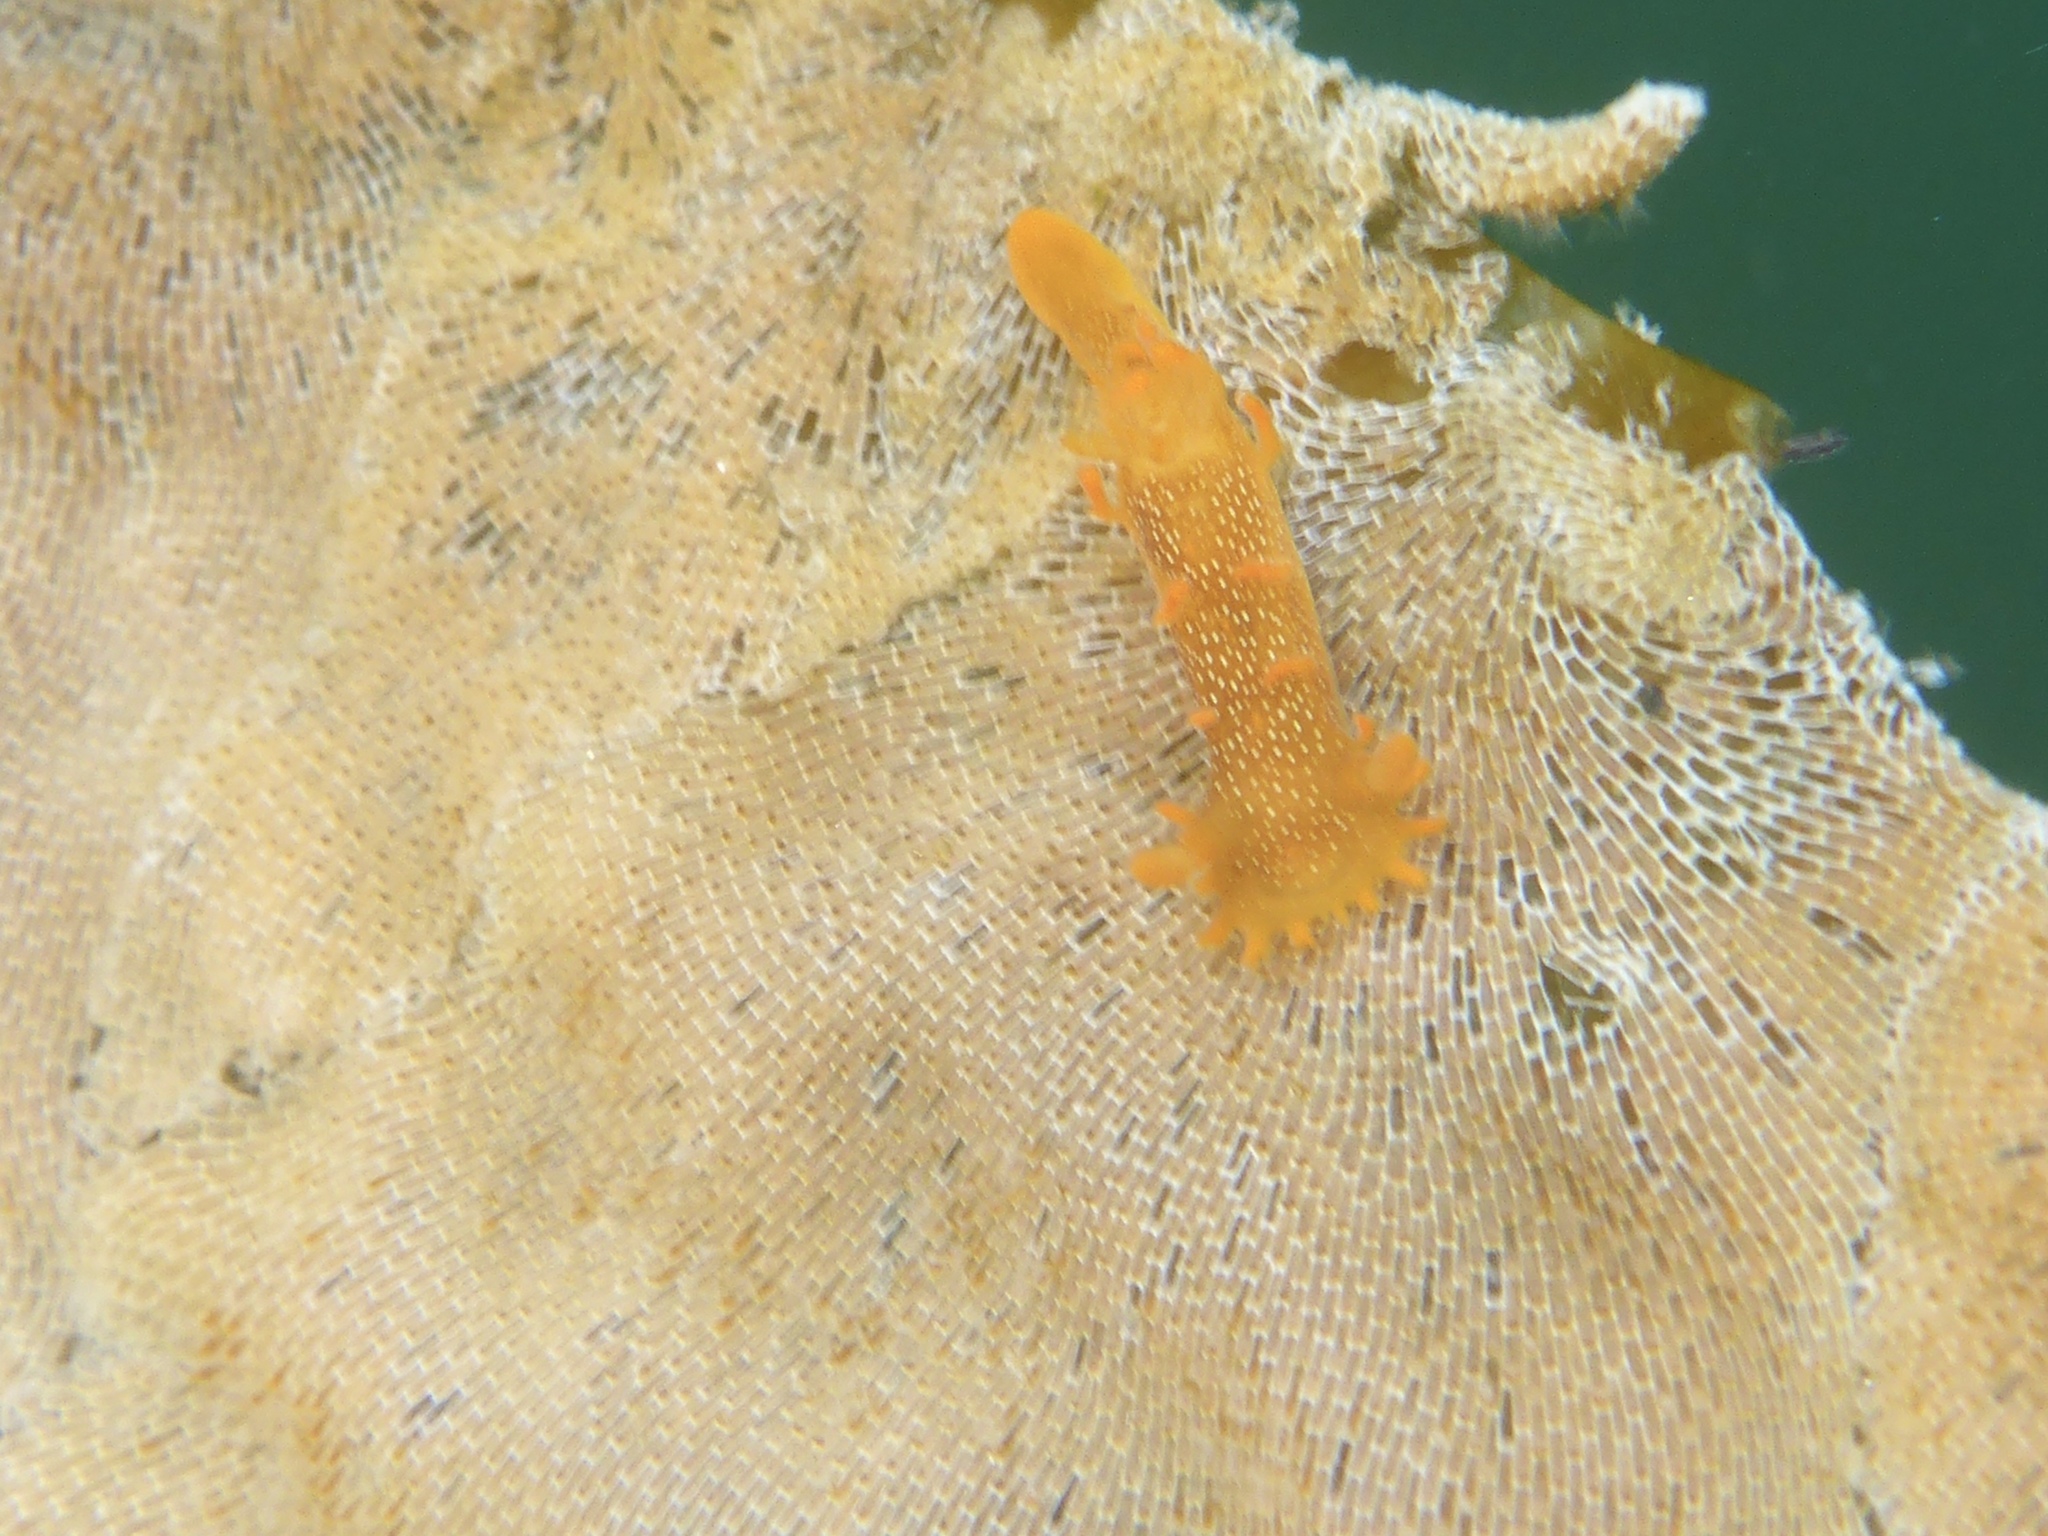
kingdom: Animalia
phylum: Mollusca
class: Gastropoda
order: Nudibranchia
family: Polyceridae
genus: Triopha
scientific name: Triopha maculata
